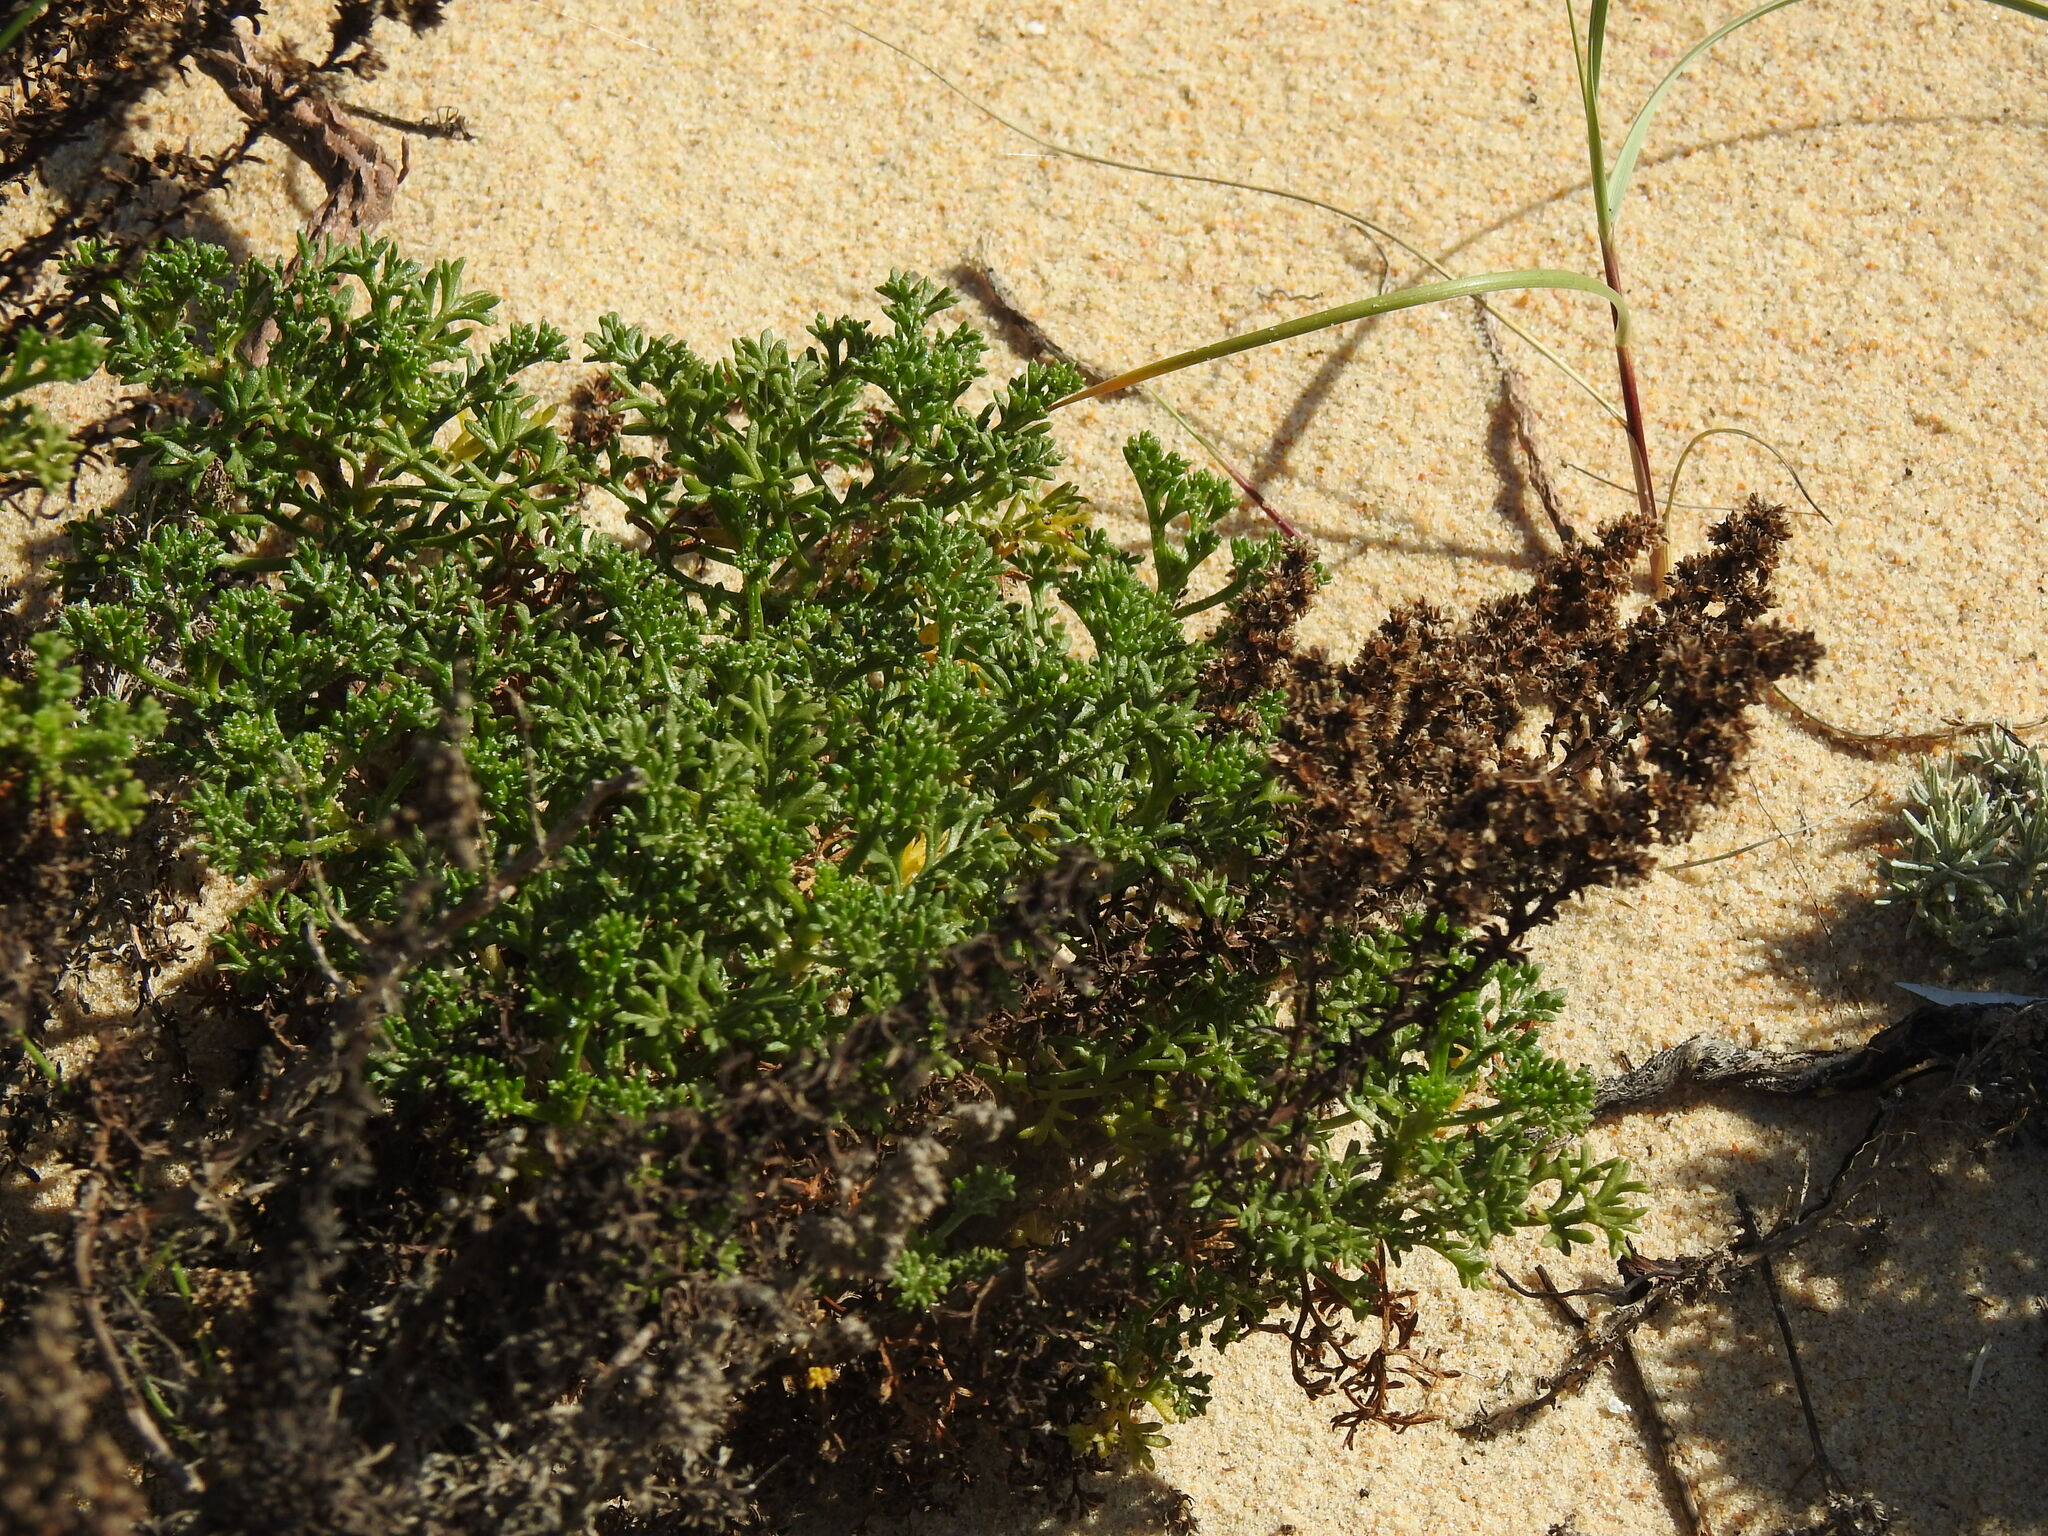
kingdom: Plantae
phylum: Tracheophyta
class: Magnoliopsida
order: Asterales
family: Asteraceae
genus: Artemisia
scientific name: Artemisia crithmifolia
